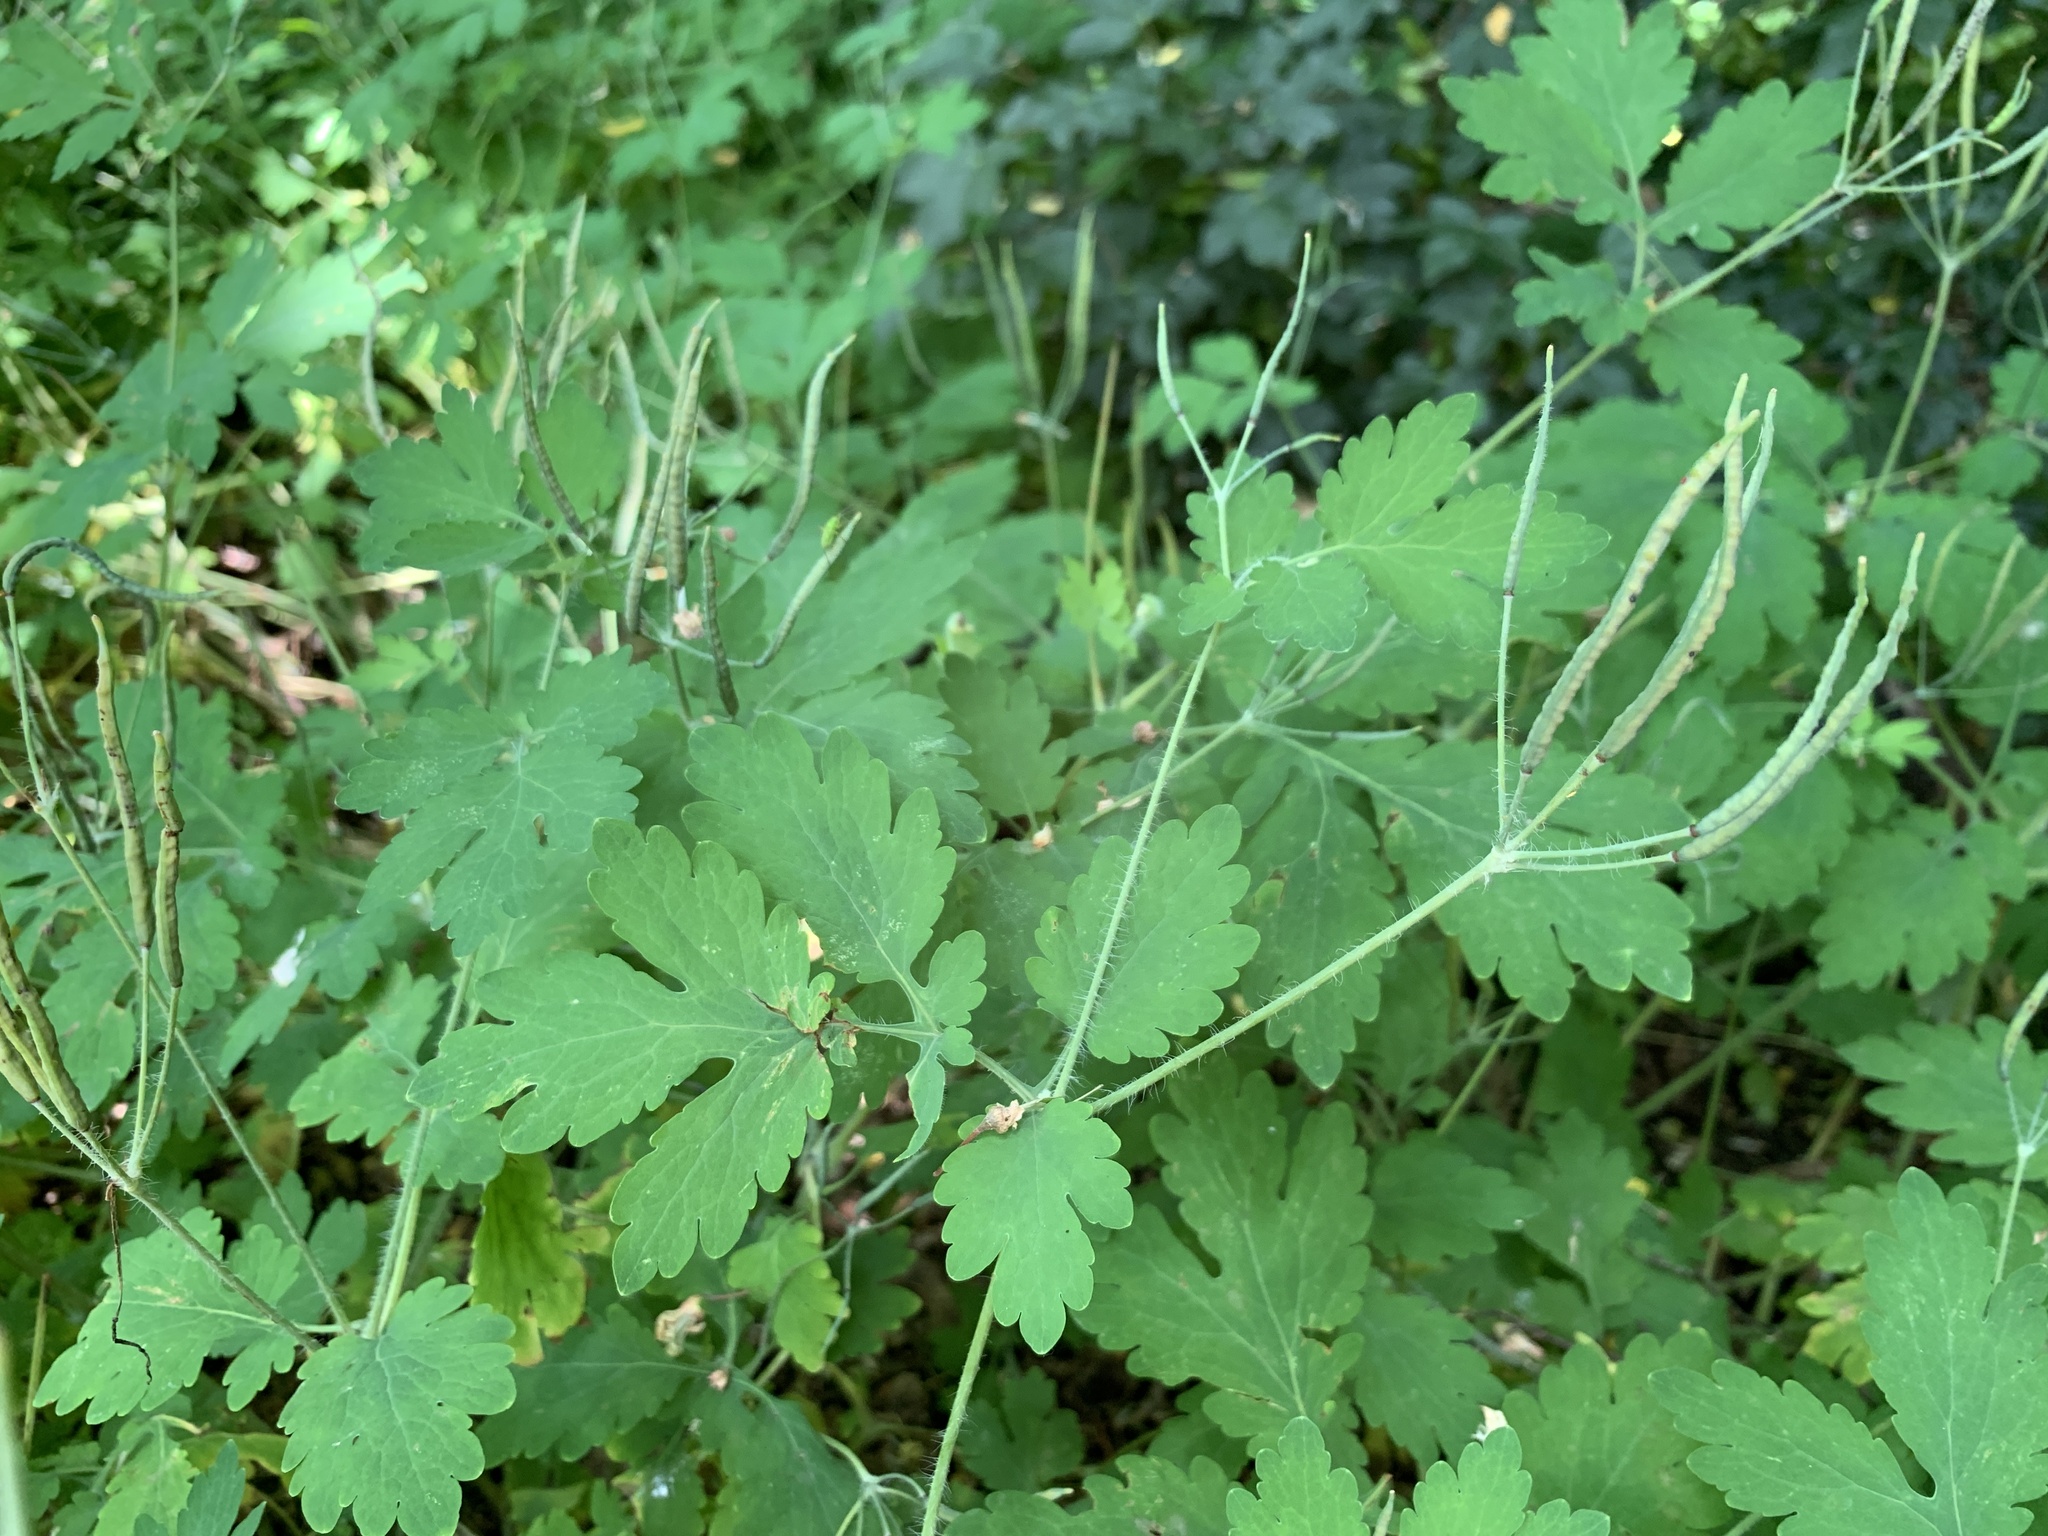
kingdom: Plantae
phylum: Tracheophyta
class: Magnoliopsida
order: Ranunculales
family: Papaveraceae
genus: Chelidonium
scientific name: Chelidonium majus
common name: Greater celandine
